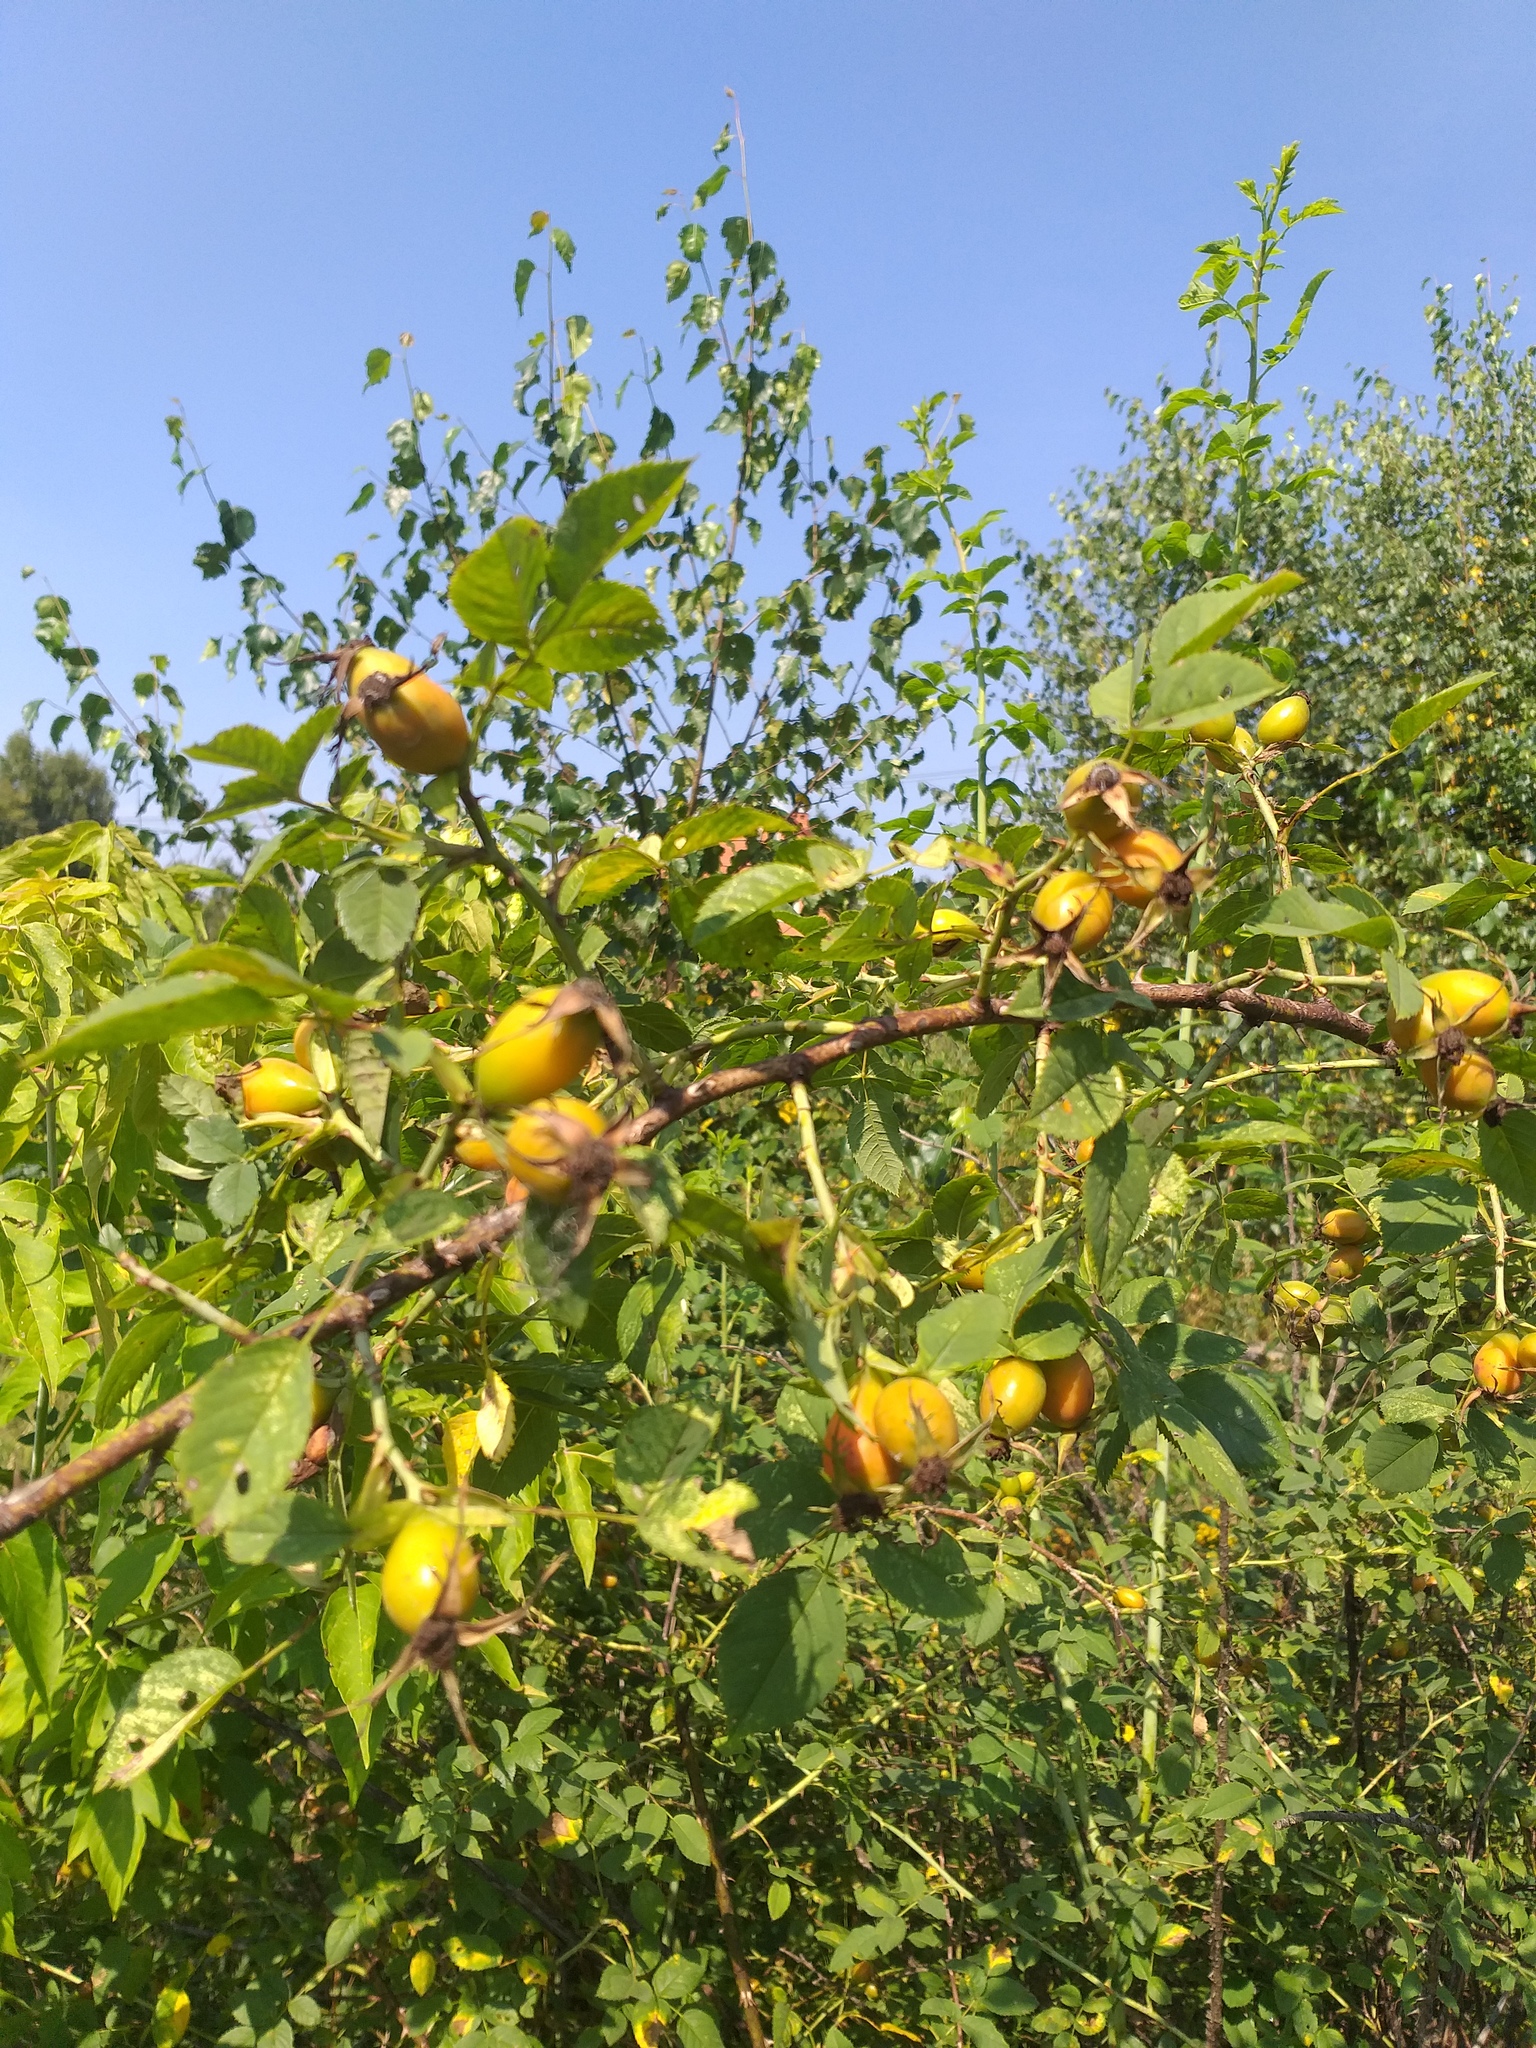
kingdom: Plantae
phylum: Tracheophyta
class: Magnoliopsida
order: Rosales
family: Rosaceae
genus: Rosa
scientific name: Rosa dumalis
